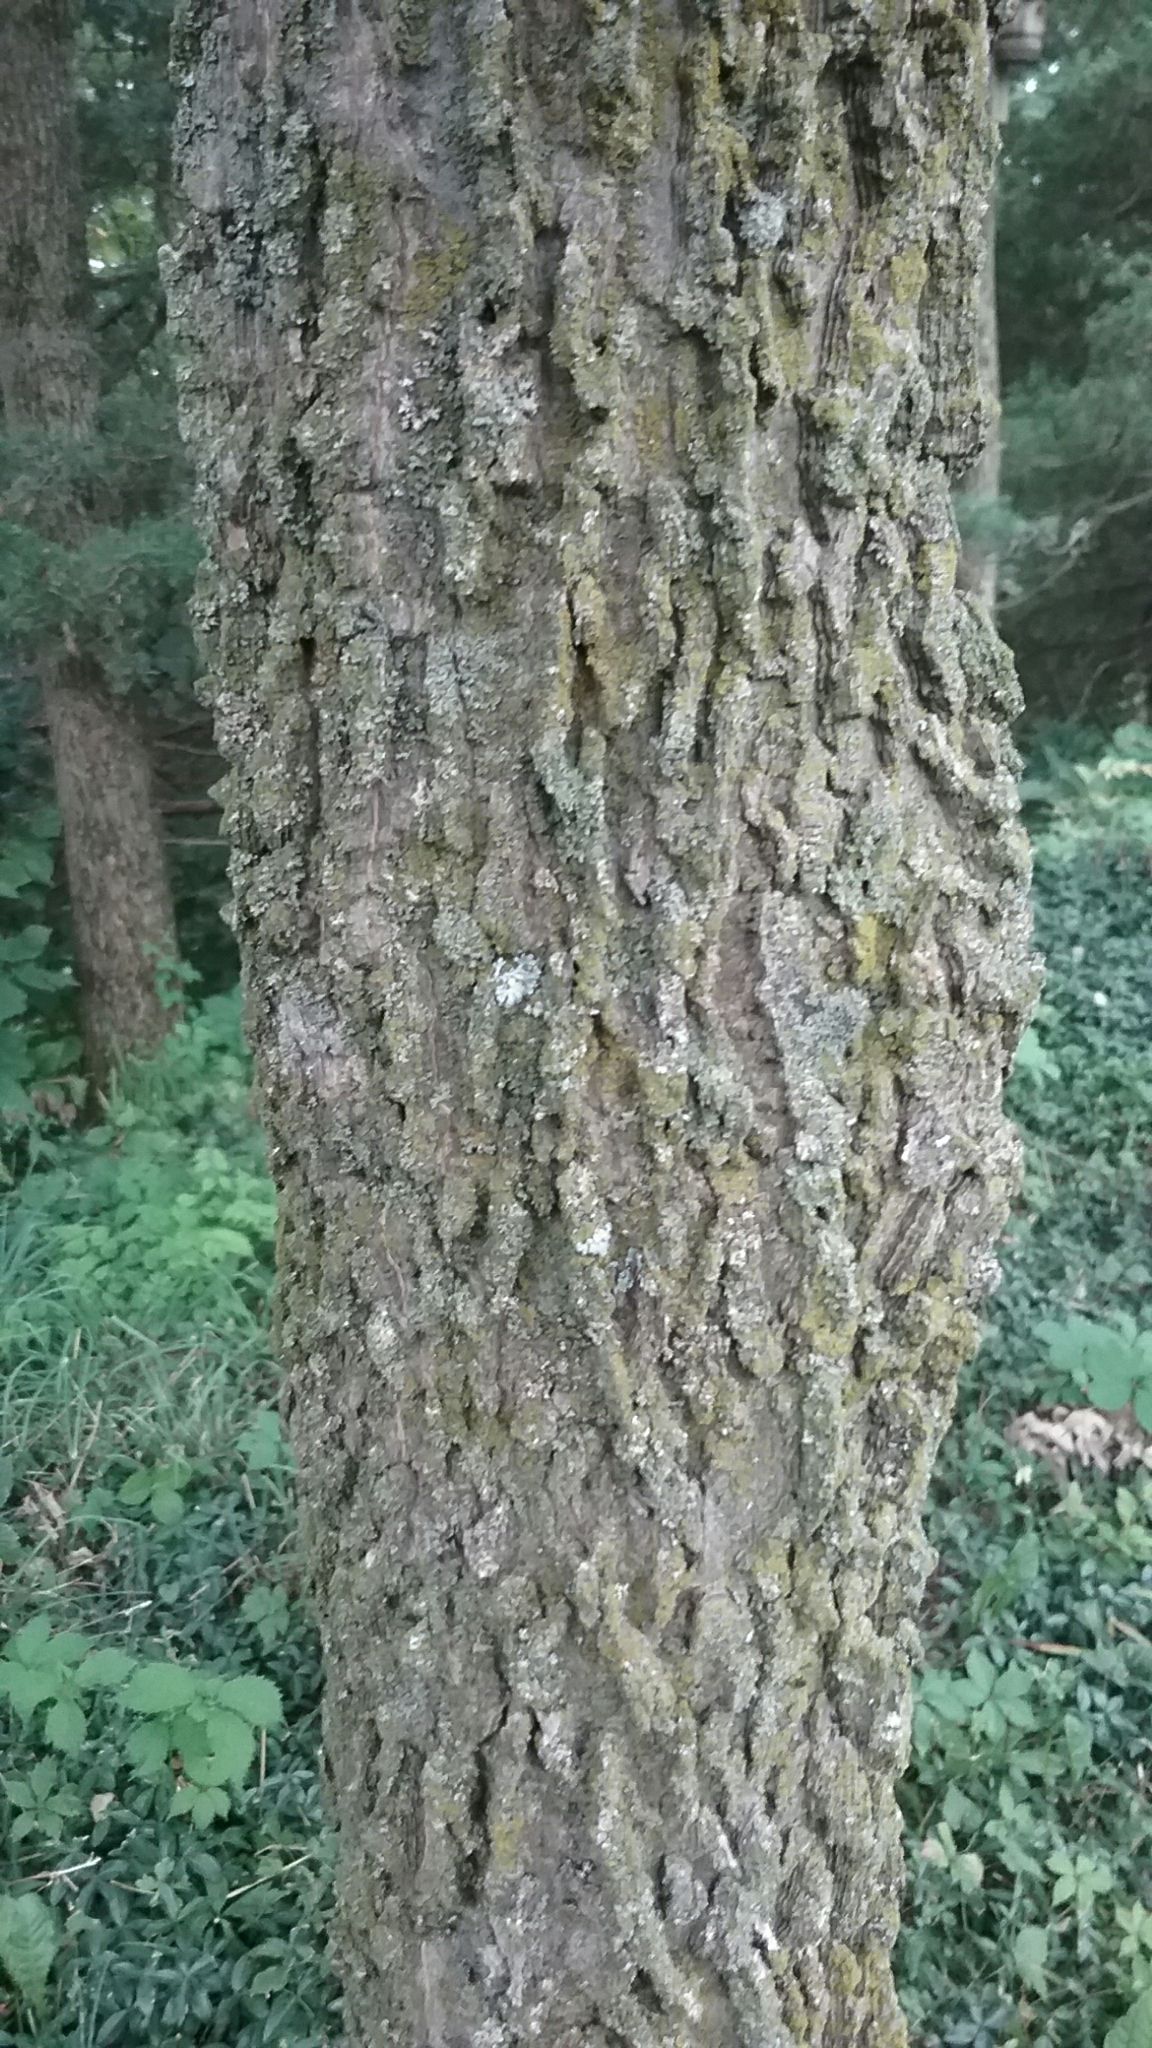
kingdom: Plantae
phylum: Tracheophyta
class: Magnoliopsida
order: Rosales
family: Cannabaceae
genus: Celtis
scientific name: Celtis occidentalis
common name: Common hackberry
